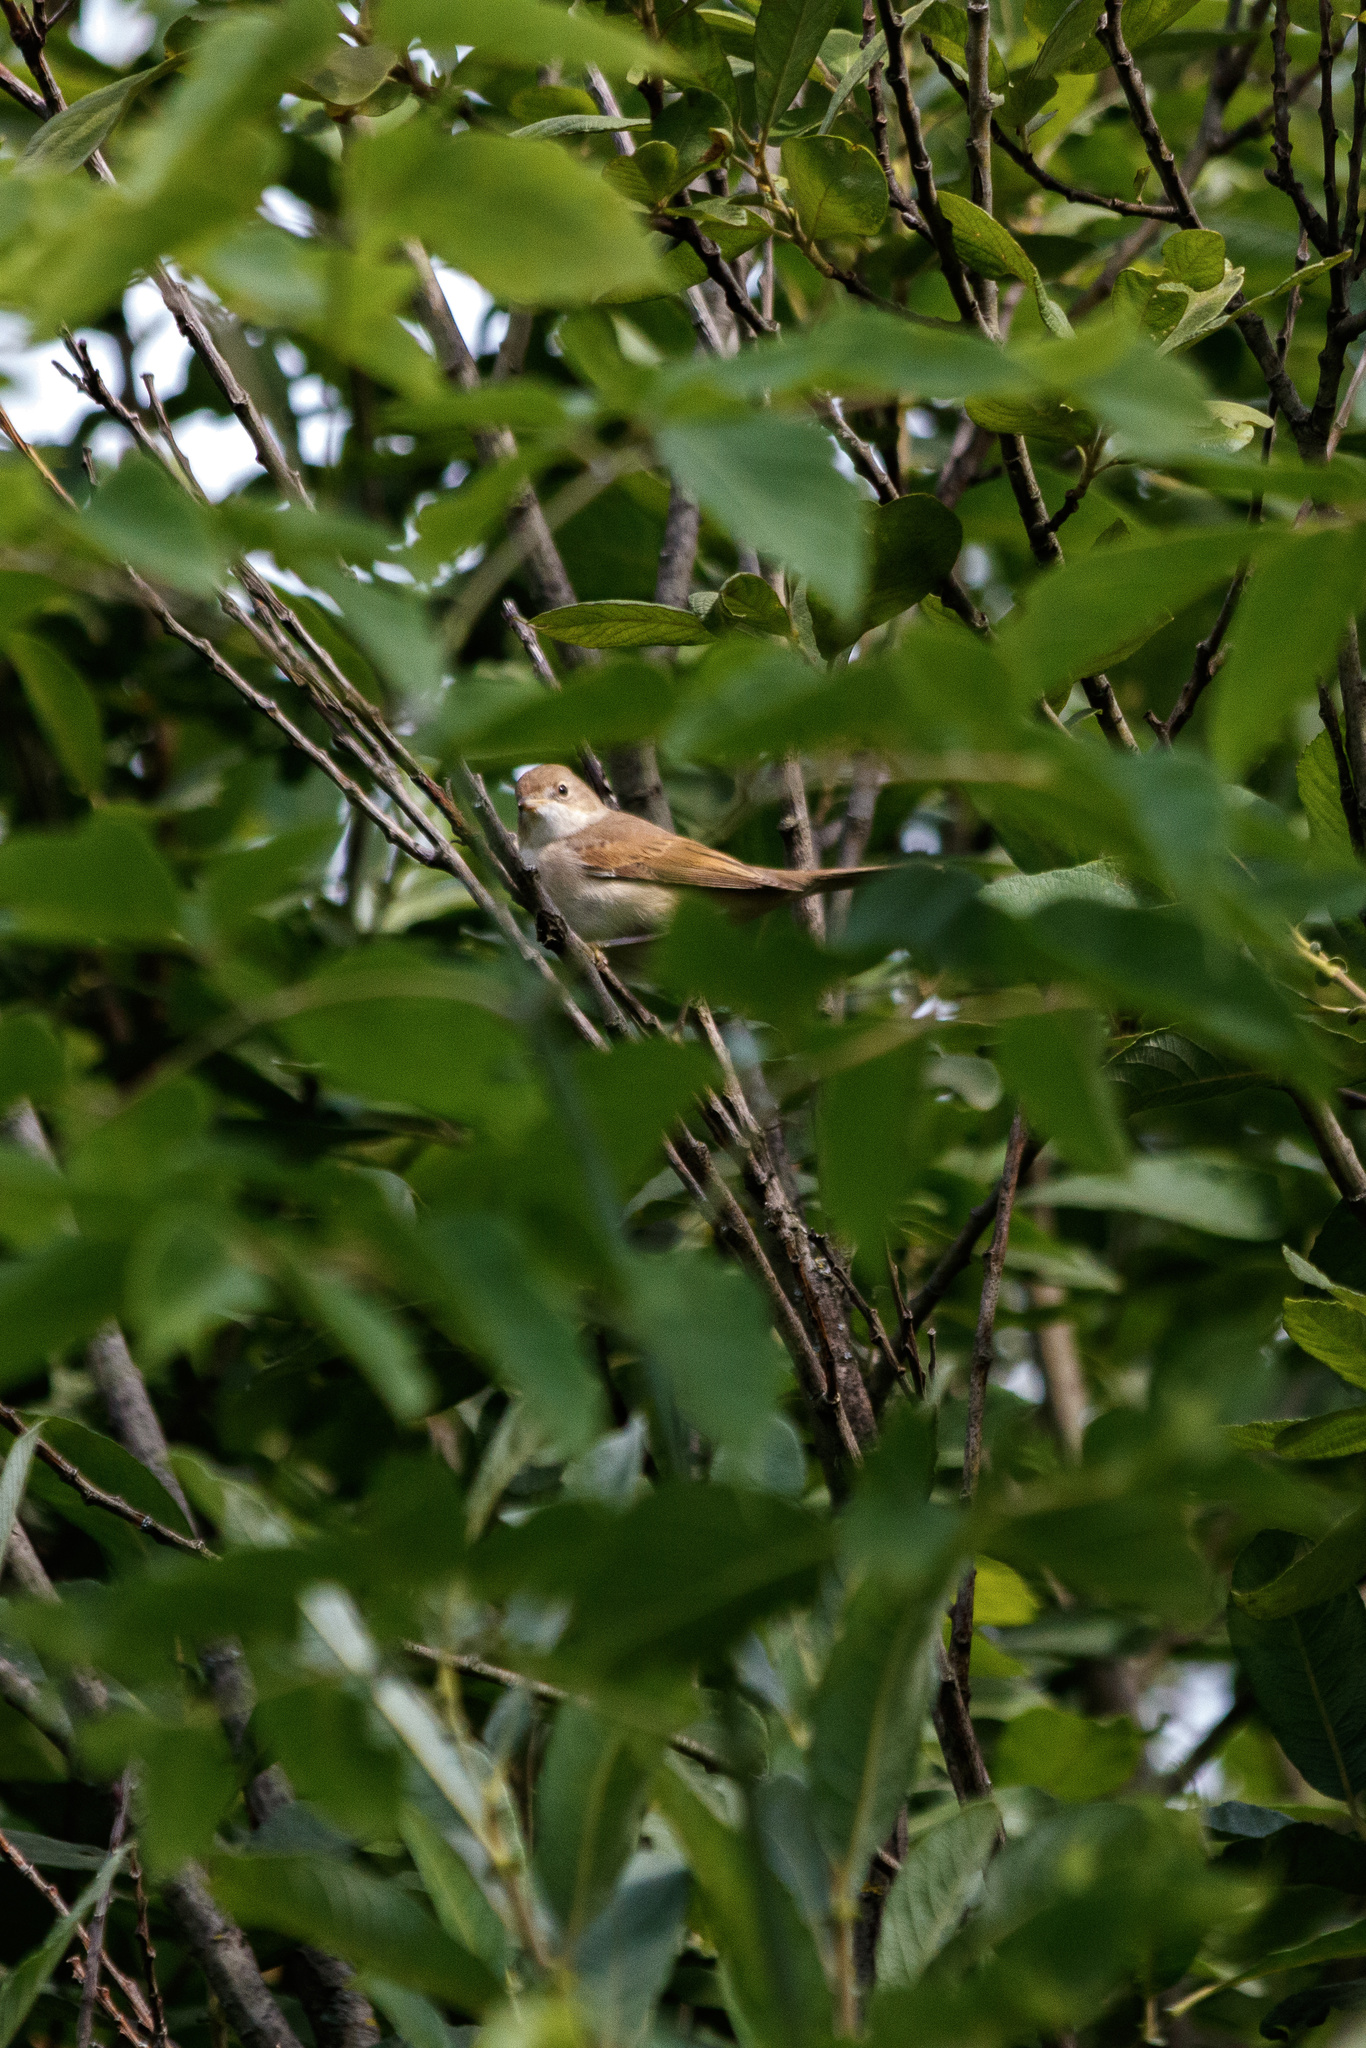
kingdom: Animalia
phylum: Chordata
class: Aves
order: Passeriformes
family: Sylviidae
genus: Sylvia
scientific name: Sylvia communis
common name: Common whitethroat
